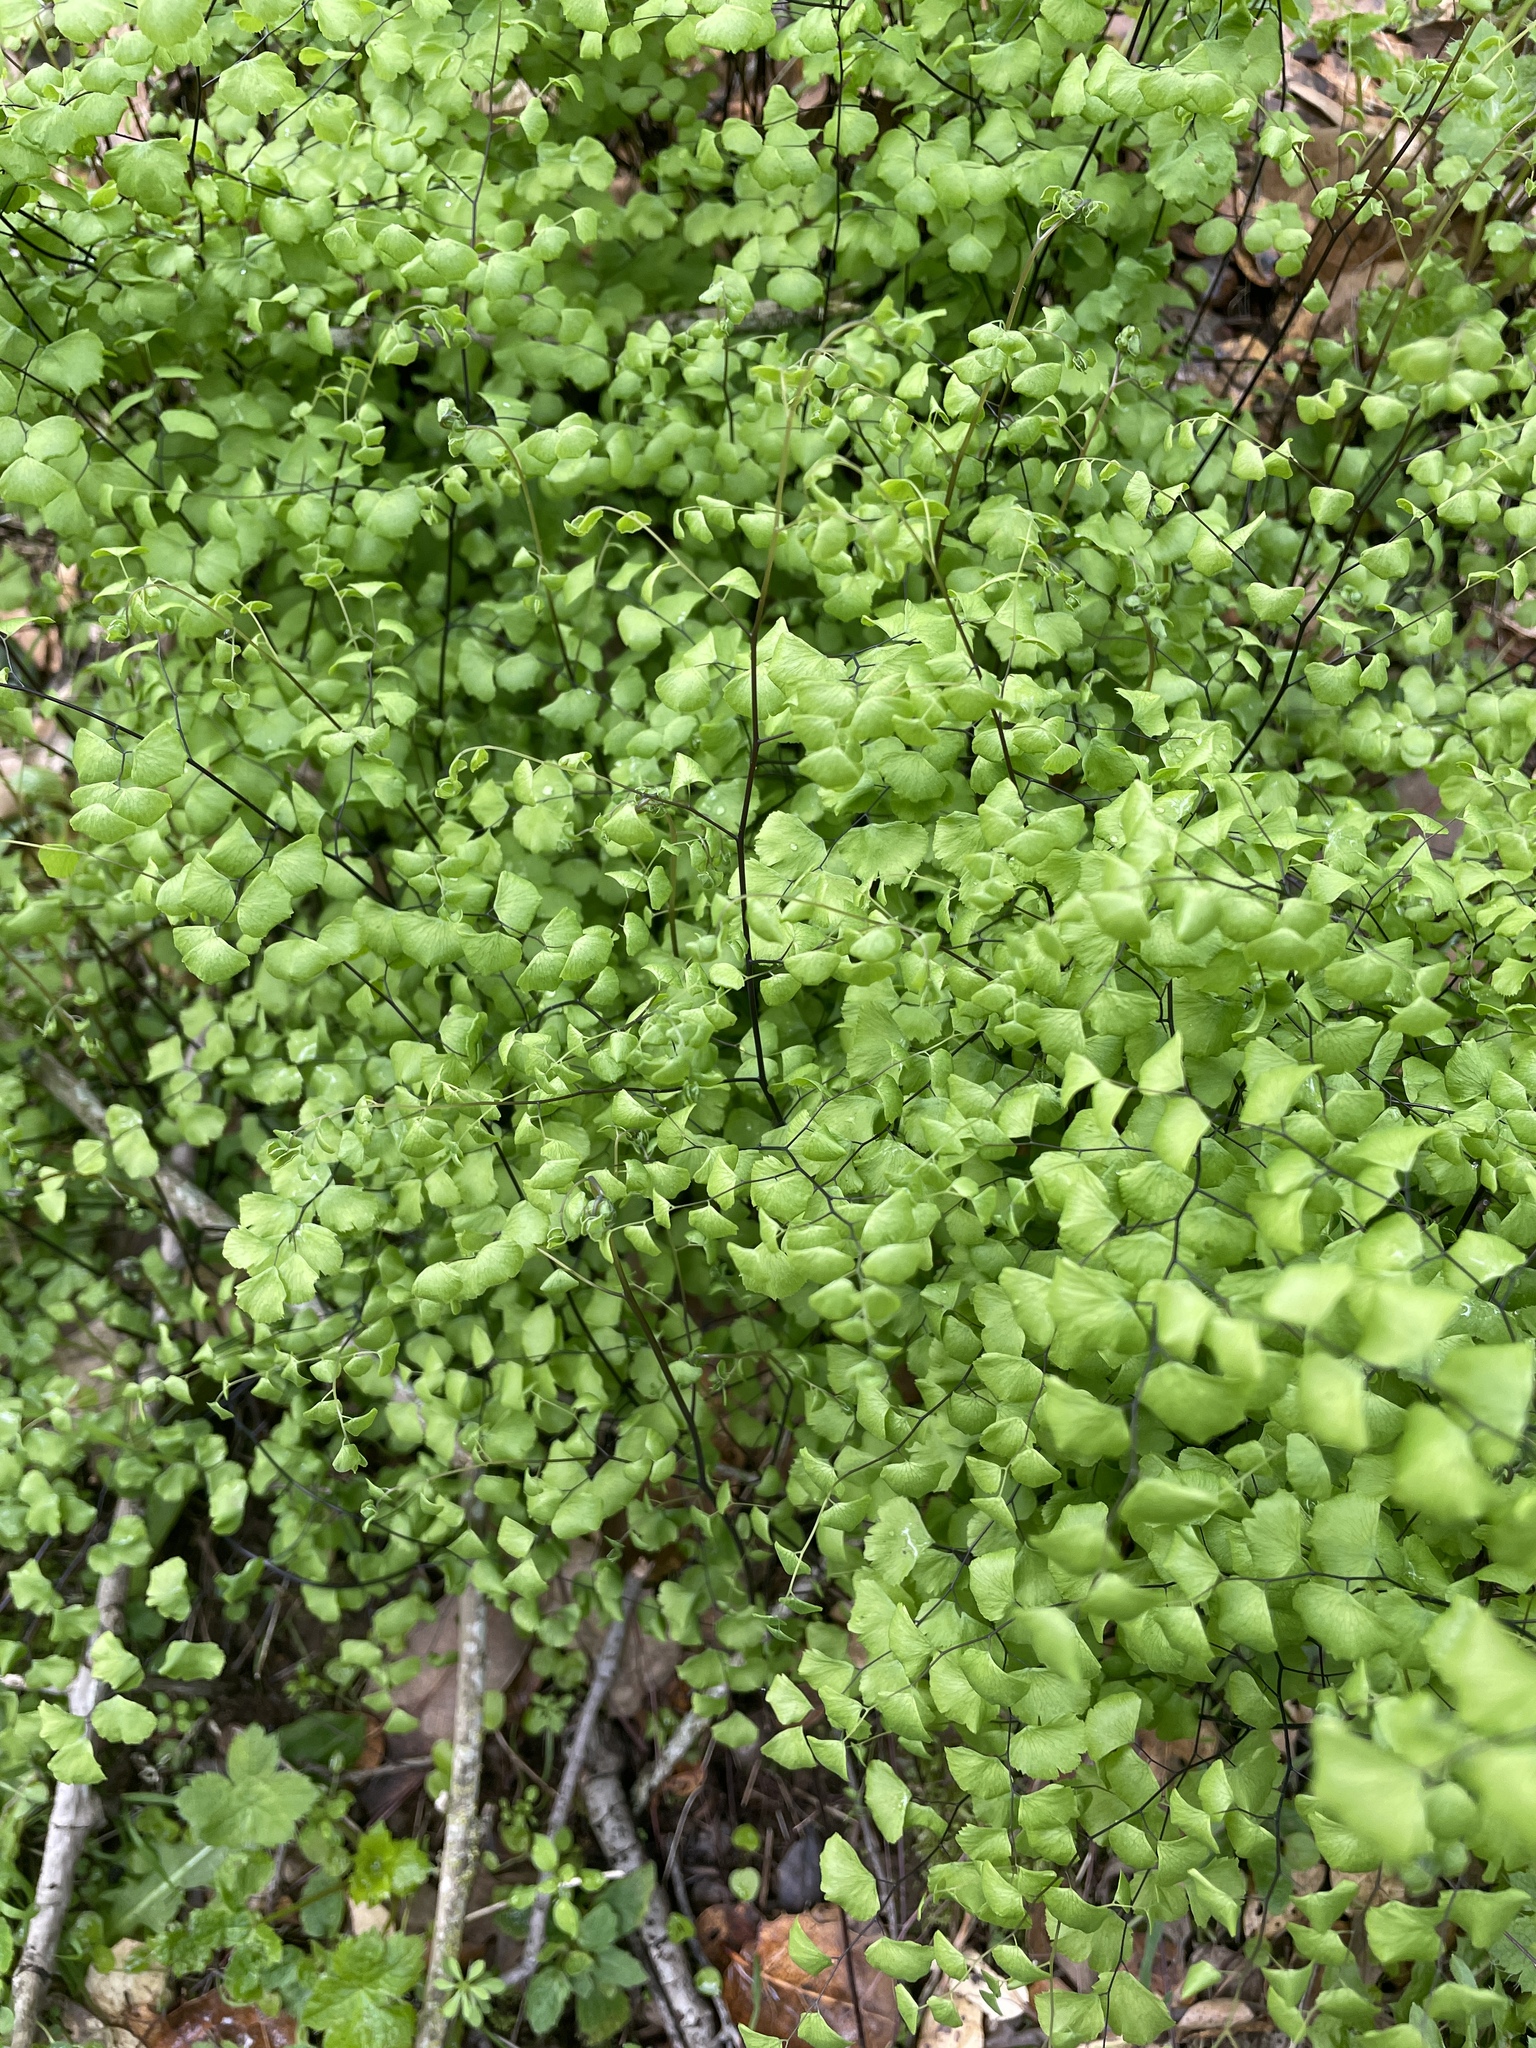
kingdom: Plantae
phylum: Tracheophyta
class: Polypodiopsida
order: Polypodiales
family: Pteridaceae
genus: Adiantum
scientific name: Adiantum jordanii
